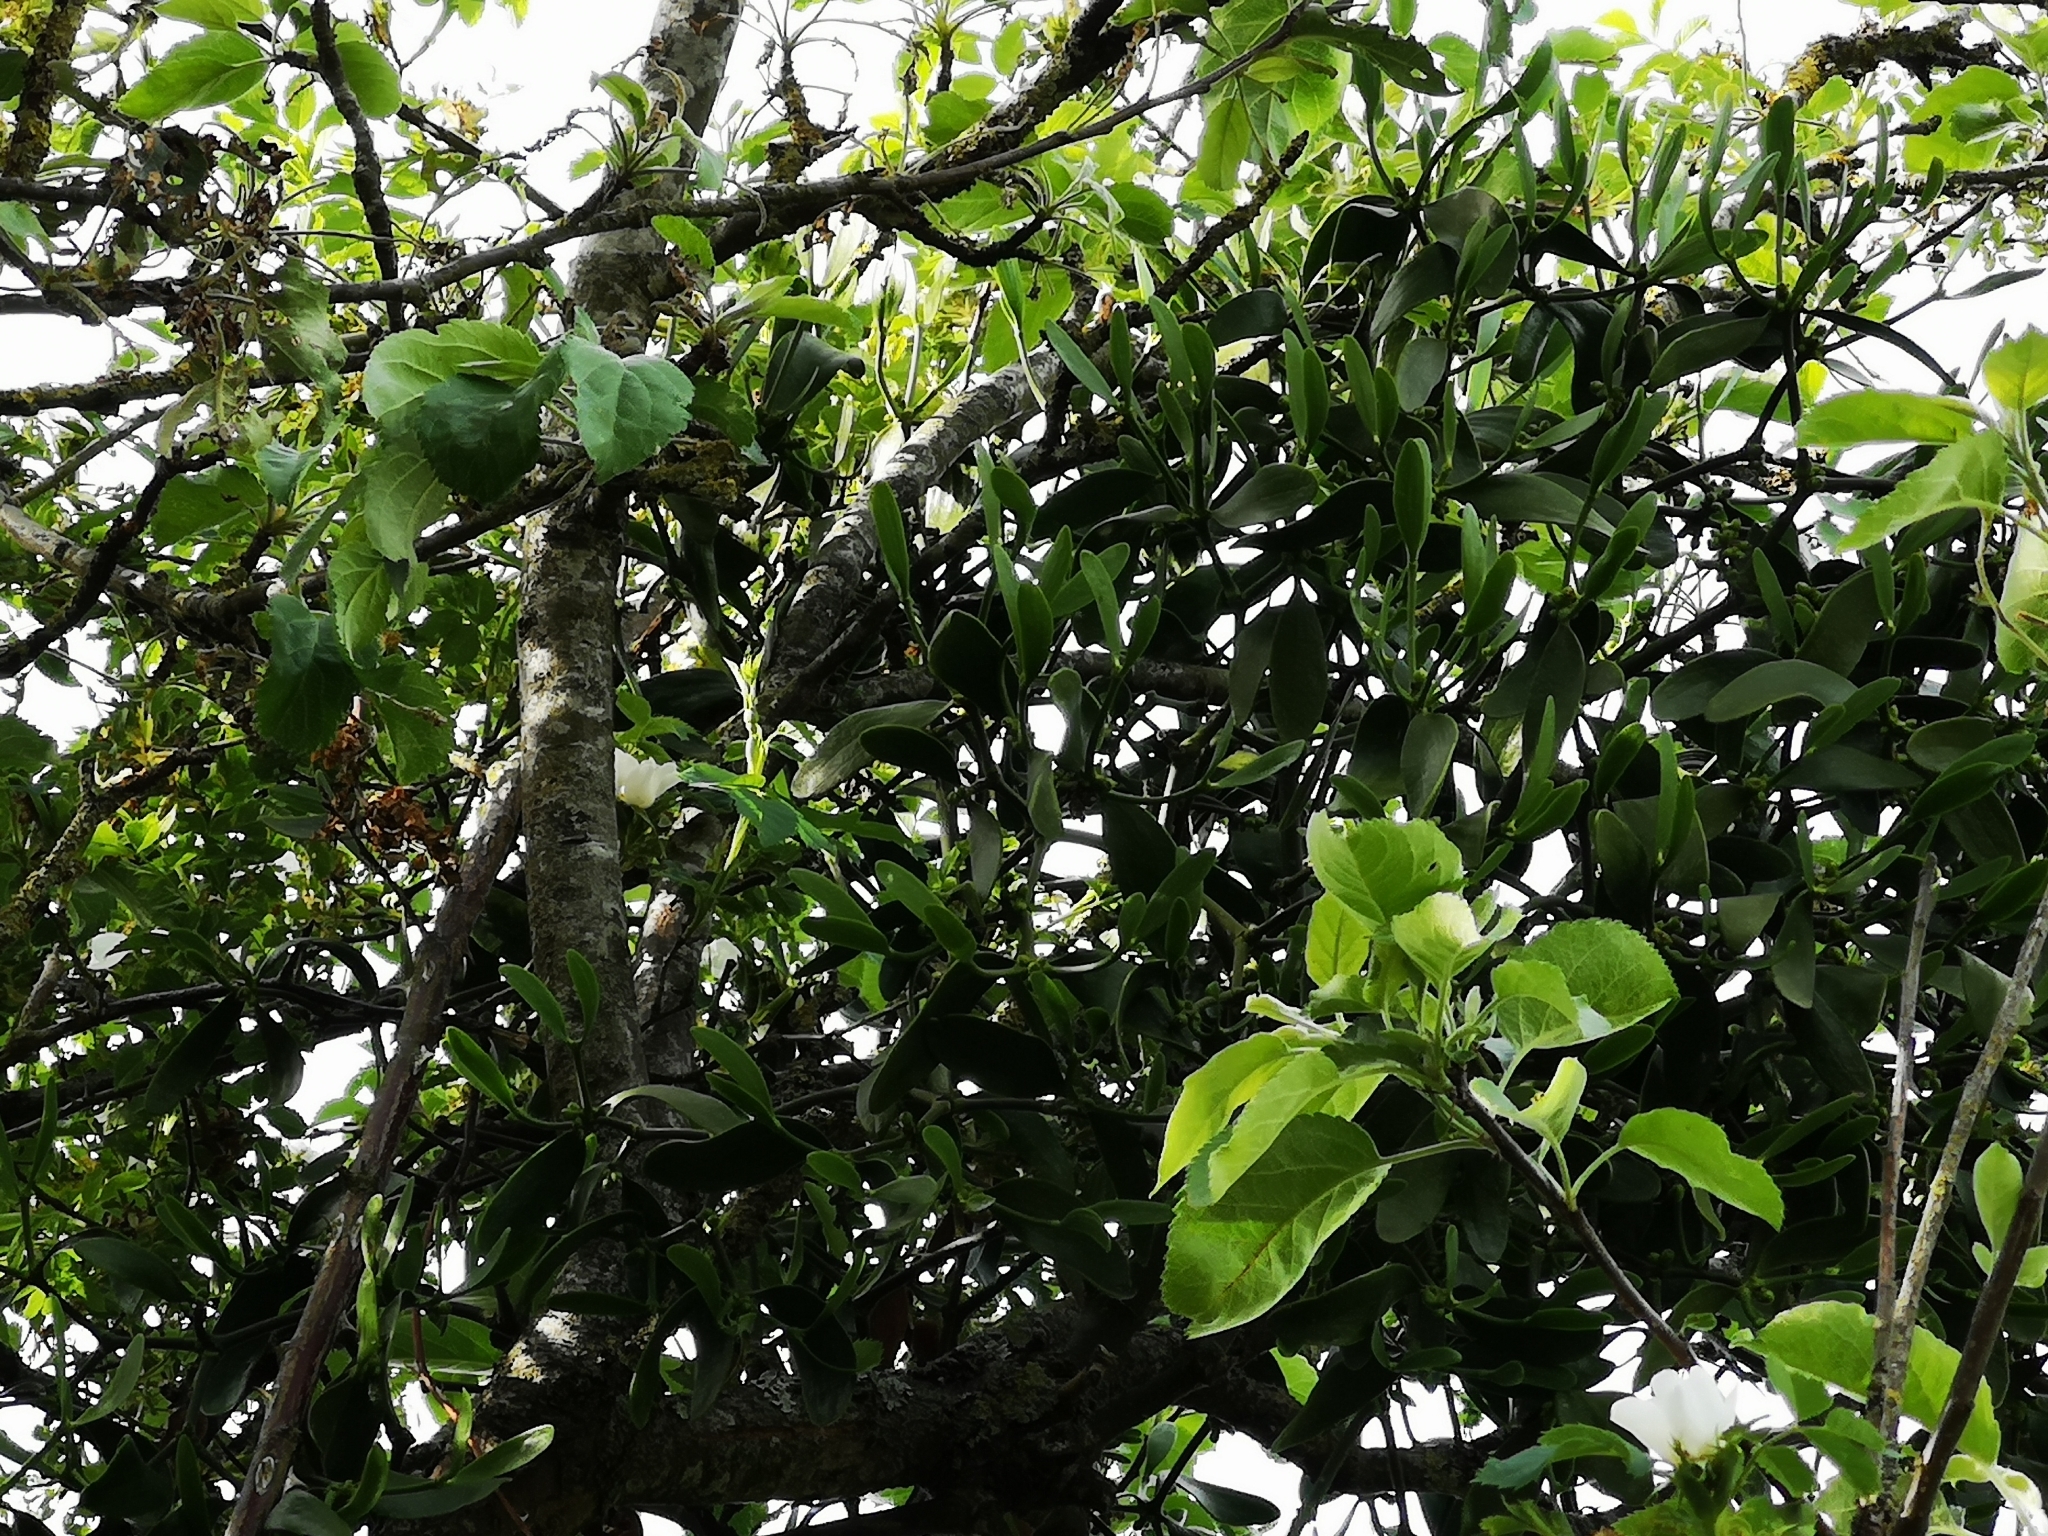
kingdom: Plantae
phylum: Tracheophyta
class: Magnoliopsida
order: Santalales
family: Viscaceae
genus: Viscum
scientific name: Viscum album
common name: Mistletoe
